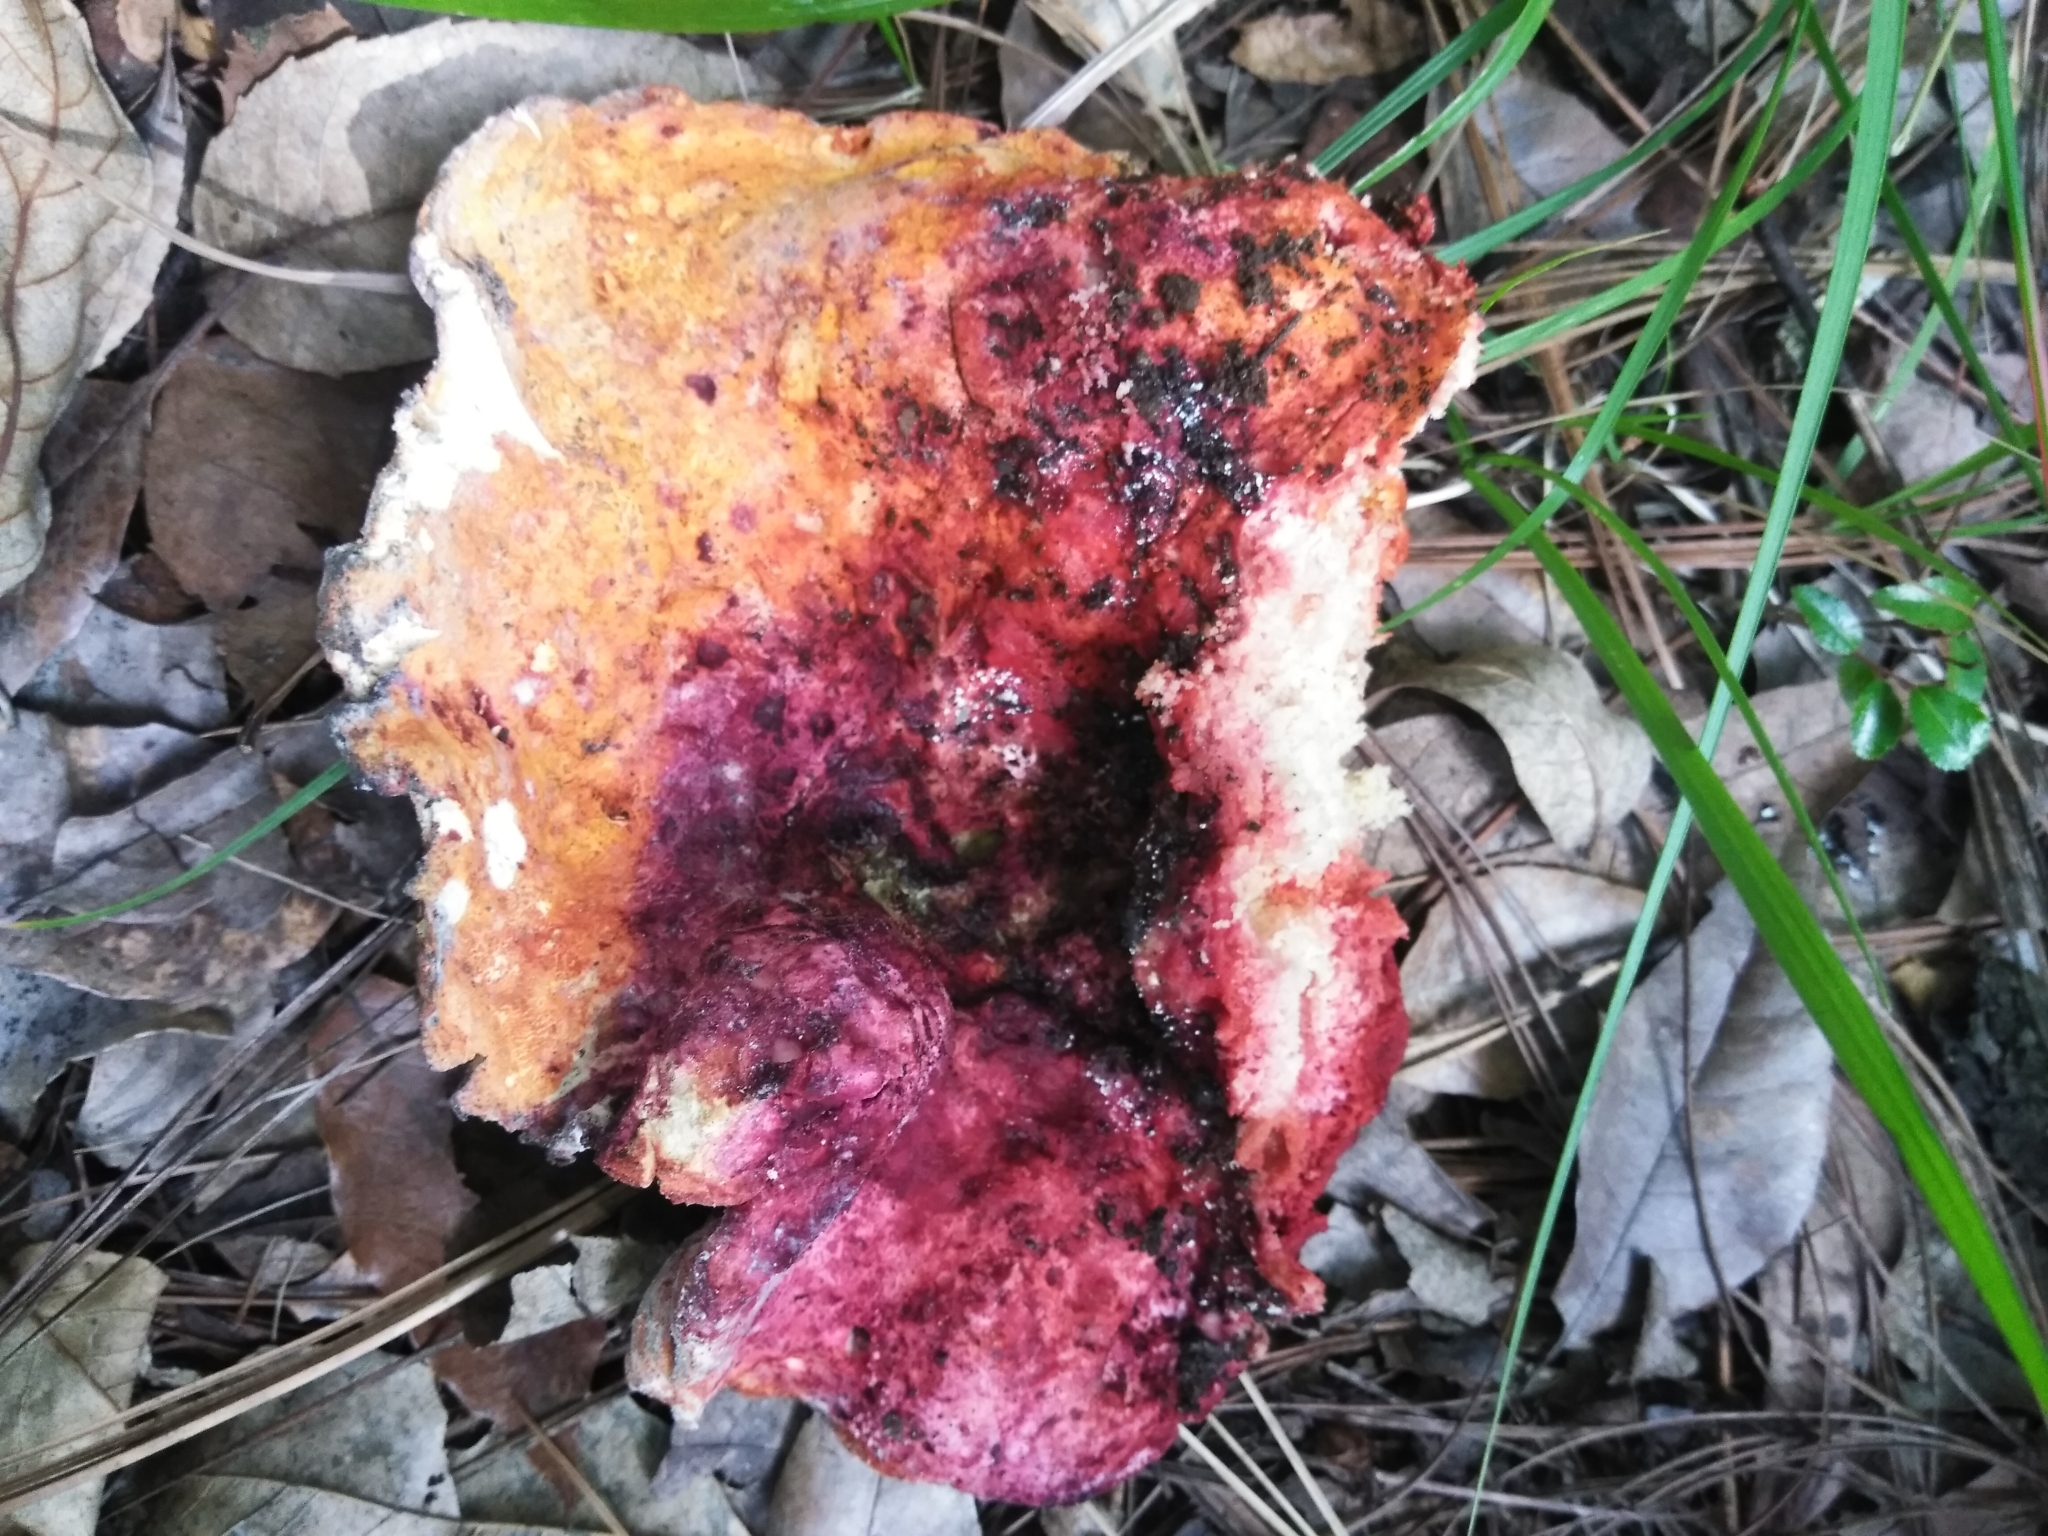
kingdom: Fungi
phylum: Ascomycota
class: Sordariomycetes
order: Hypocreales
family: Hypocreaceae
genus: Hypomyces
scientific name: Hypomyces lactifluorum
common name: Lobster mushroom
